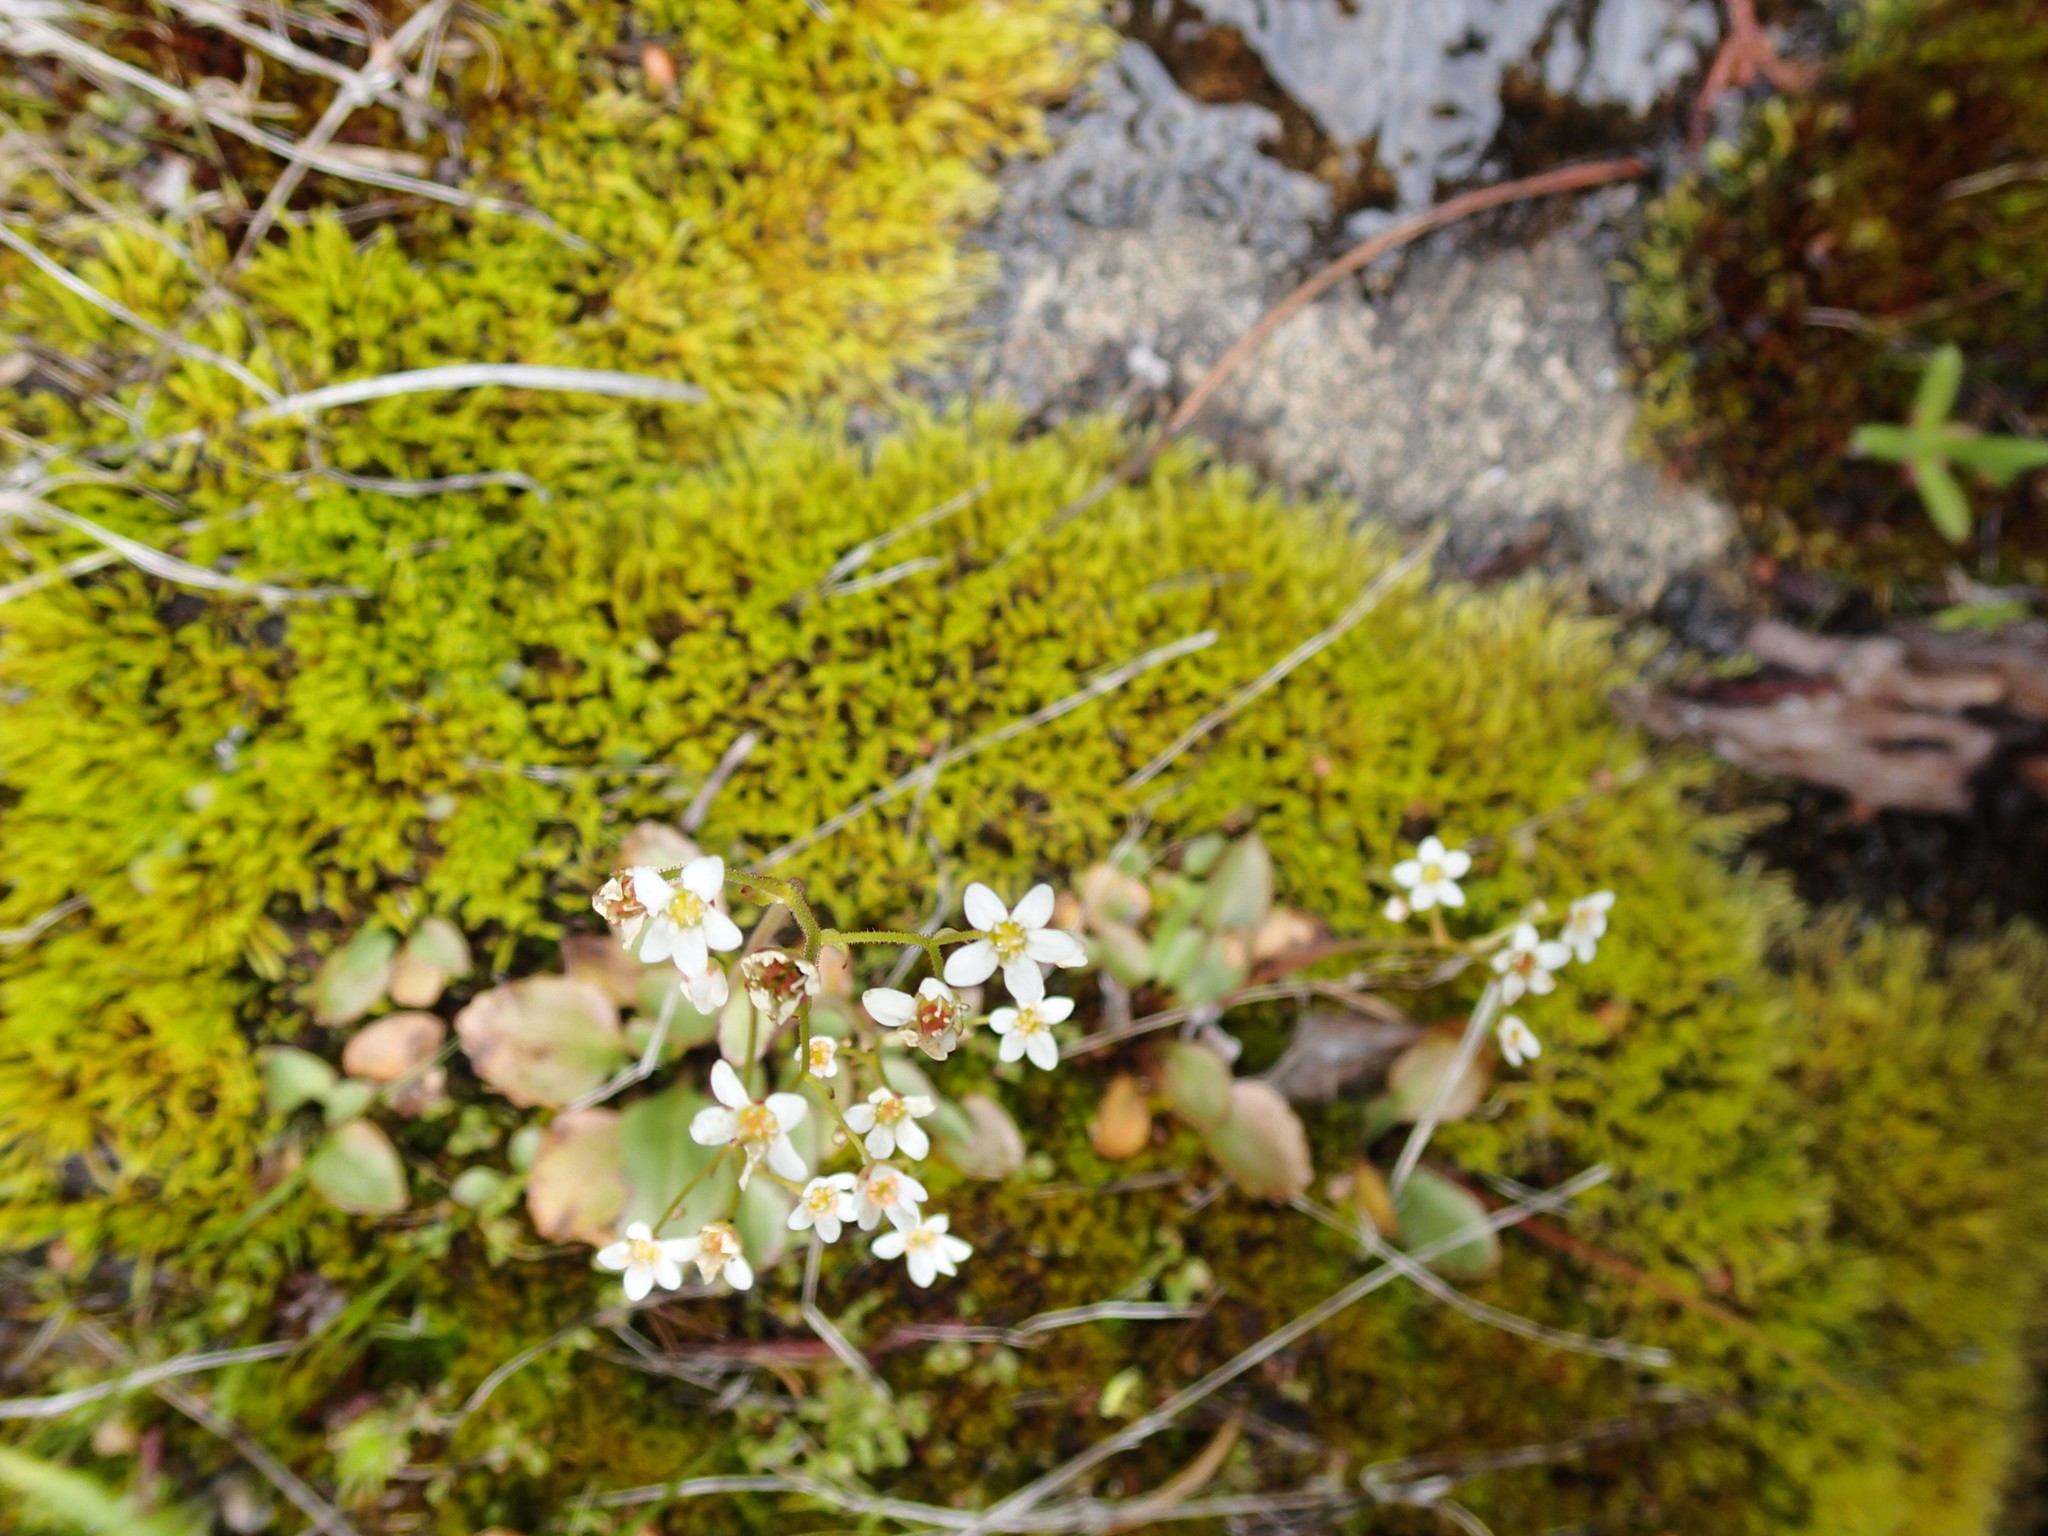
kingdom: Plantae
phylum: Tracheophyta
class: Magnoliopsida
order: Saxifragales
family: Saxifragaceae
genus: Micranthes
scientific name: Micranthes californica
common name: California saxifrage
